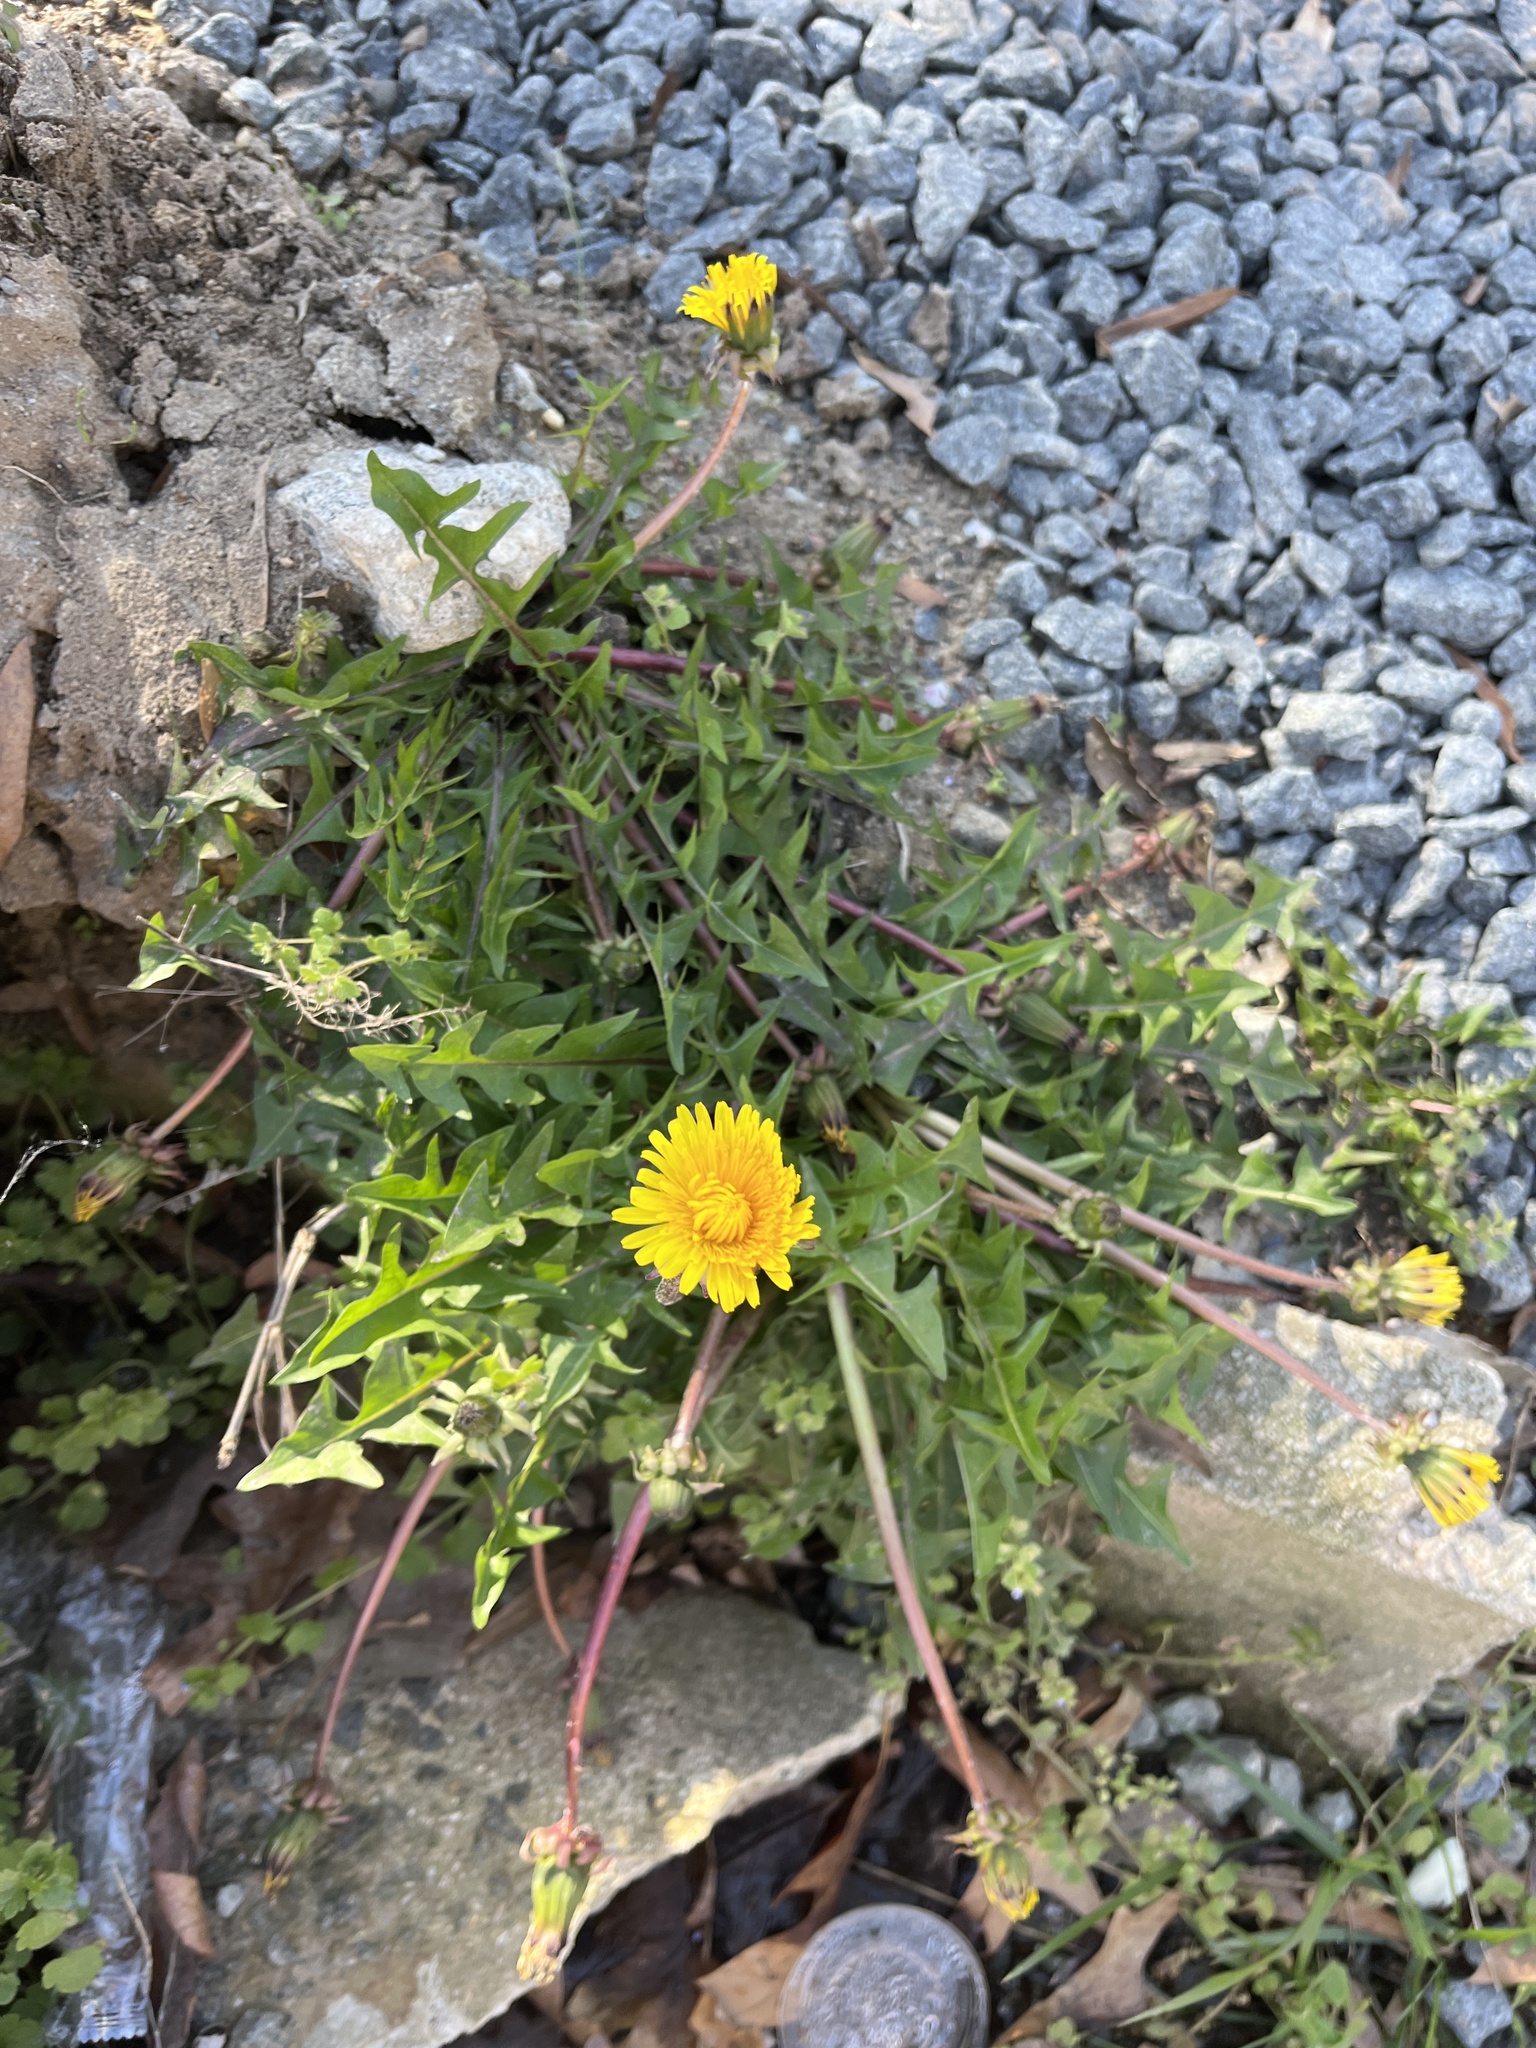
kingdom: Plantae
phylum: Tracheophyta
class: Magnoliopsida
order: Asterales
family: Asteraceae
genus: Taraxacum
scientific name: Taraxacum
